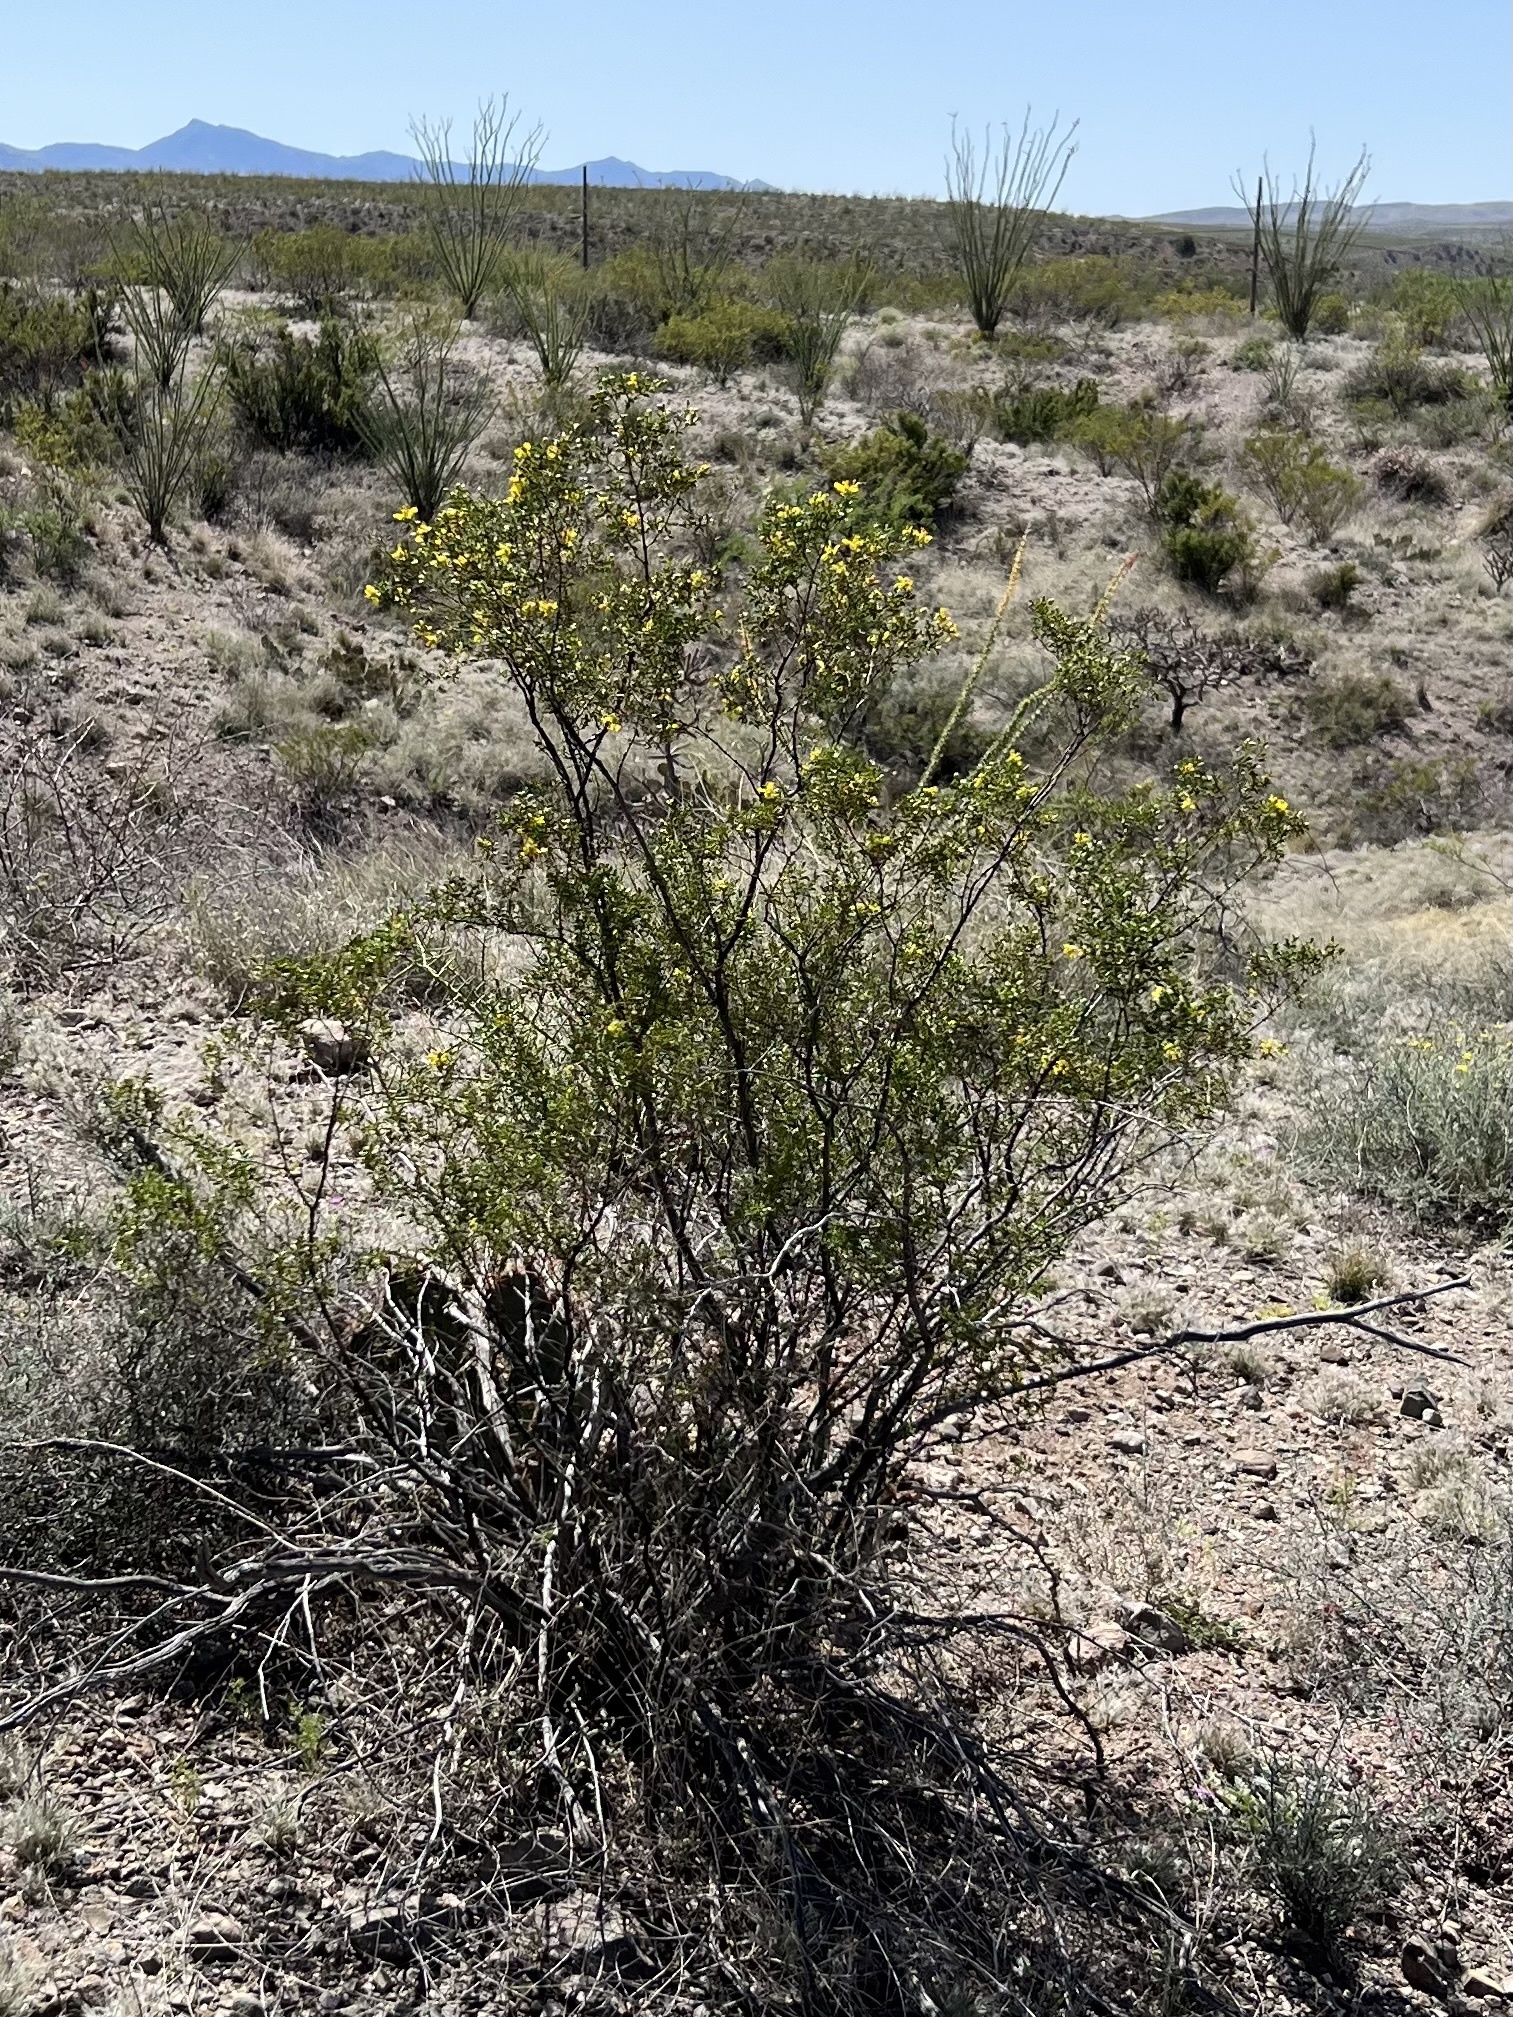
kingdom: Plantae
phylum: Tracheophyta
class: Magnoliopsida
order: Zygophyllales
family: Zygophyllaceae
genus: Larrea
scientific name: Larrea tridentata
